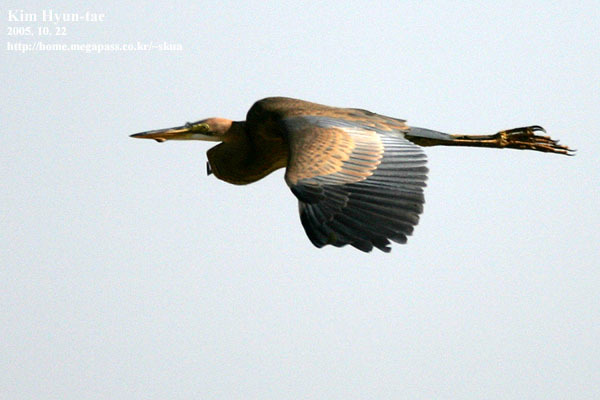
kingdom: Animalia
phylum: Chordata
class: Aves
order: Pelecaniformes
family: Ardeidae
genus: Ardea
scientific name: Ardea purpurea
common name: Purple heron
